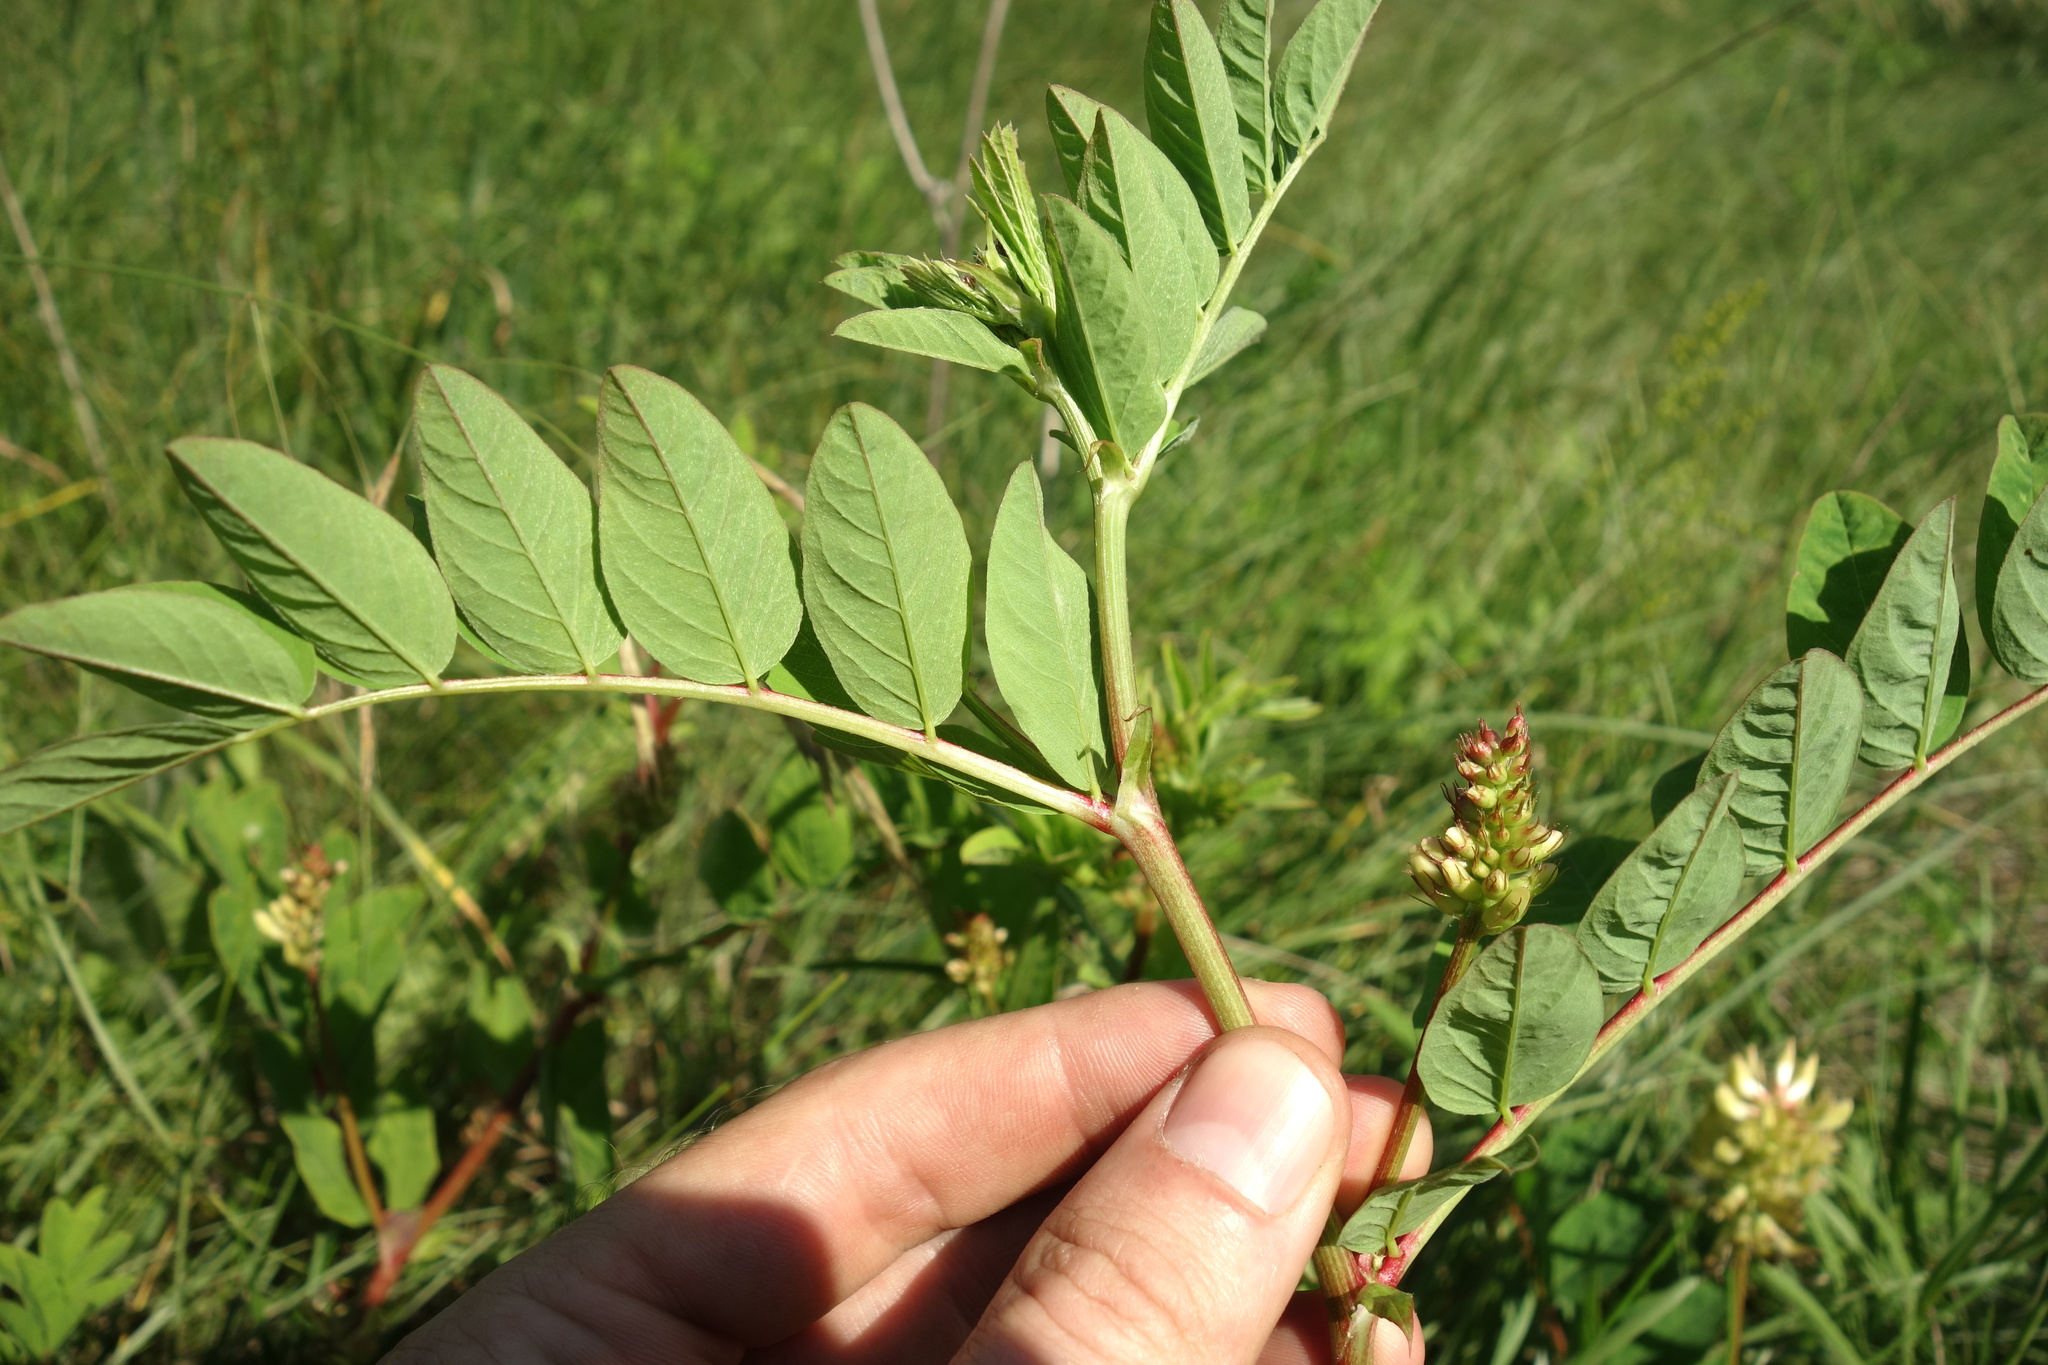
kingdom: Plantae
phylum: Tracheophyta
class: Magnoliopsida
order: Fabales
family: Fabaceae
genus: Astragalus
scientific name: Astragalus glycyphyllos
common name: Wild liquorice
